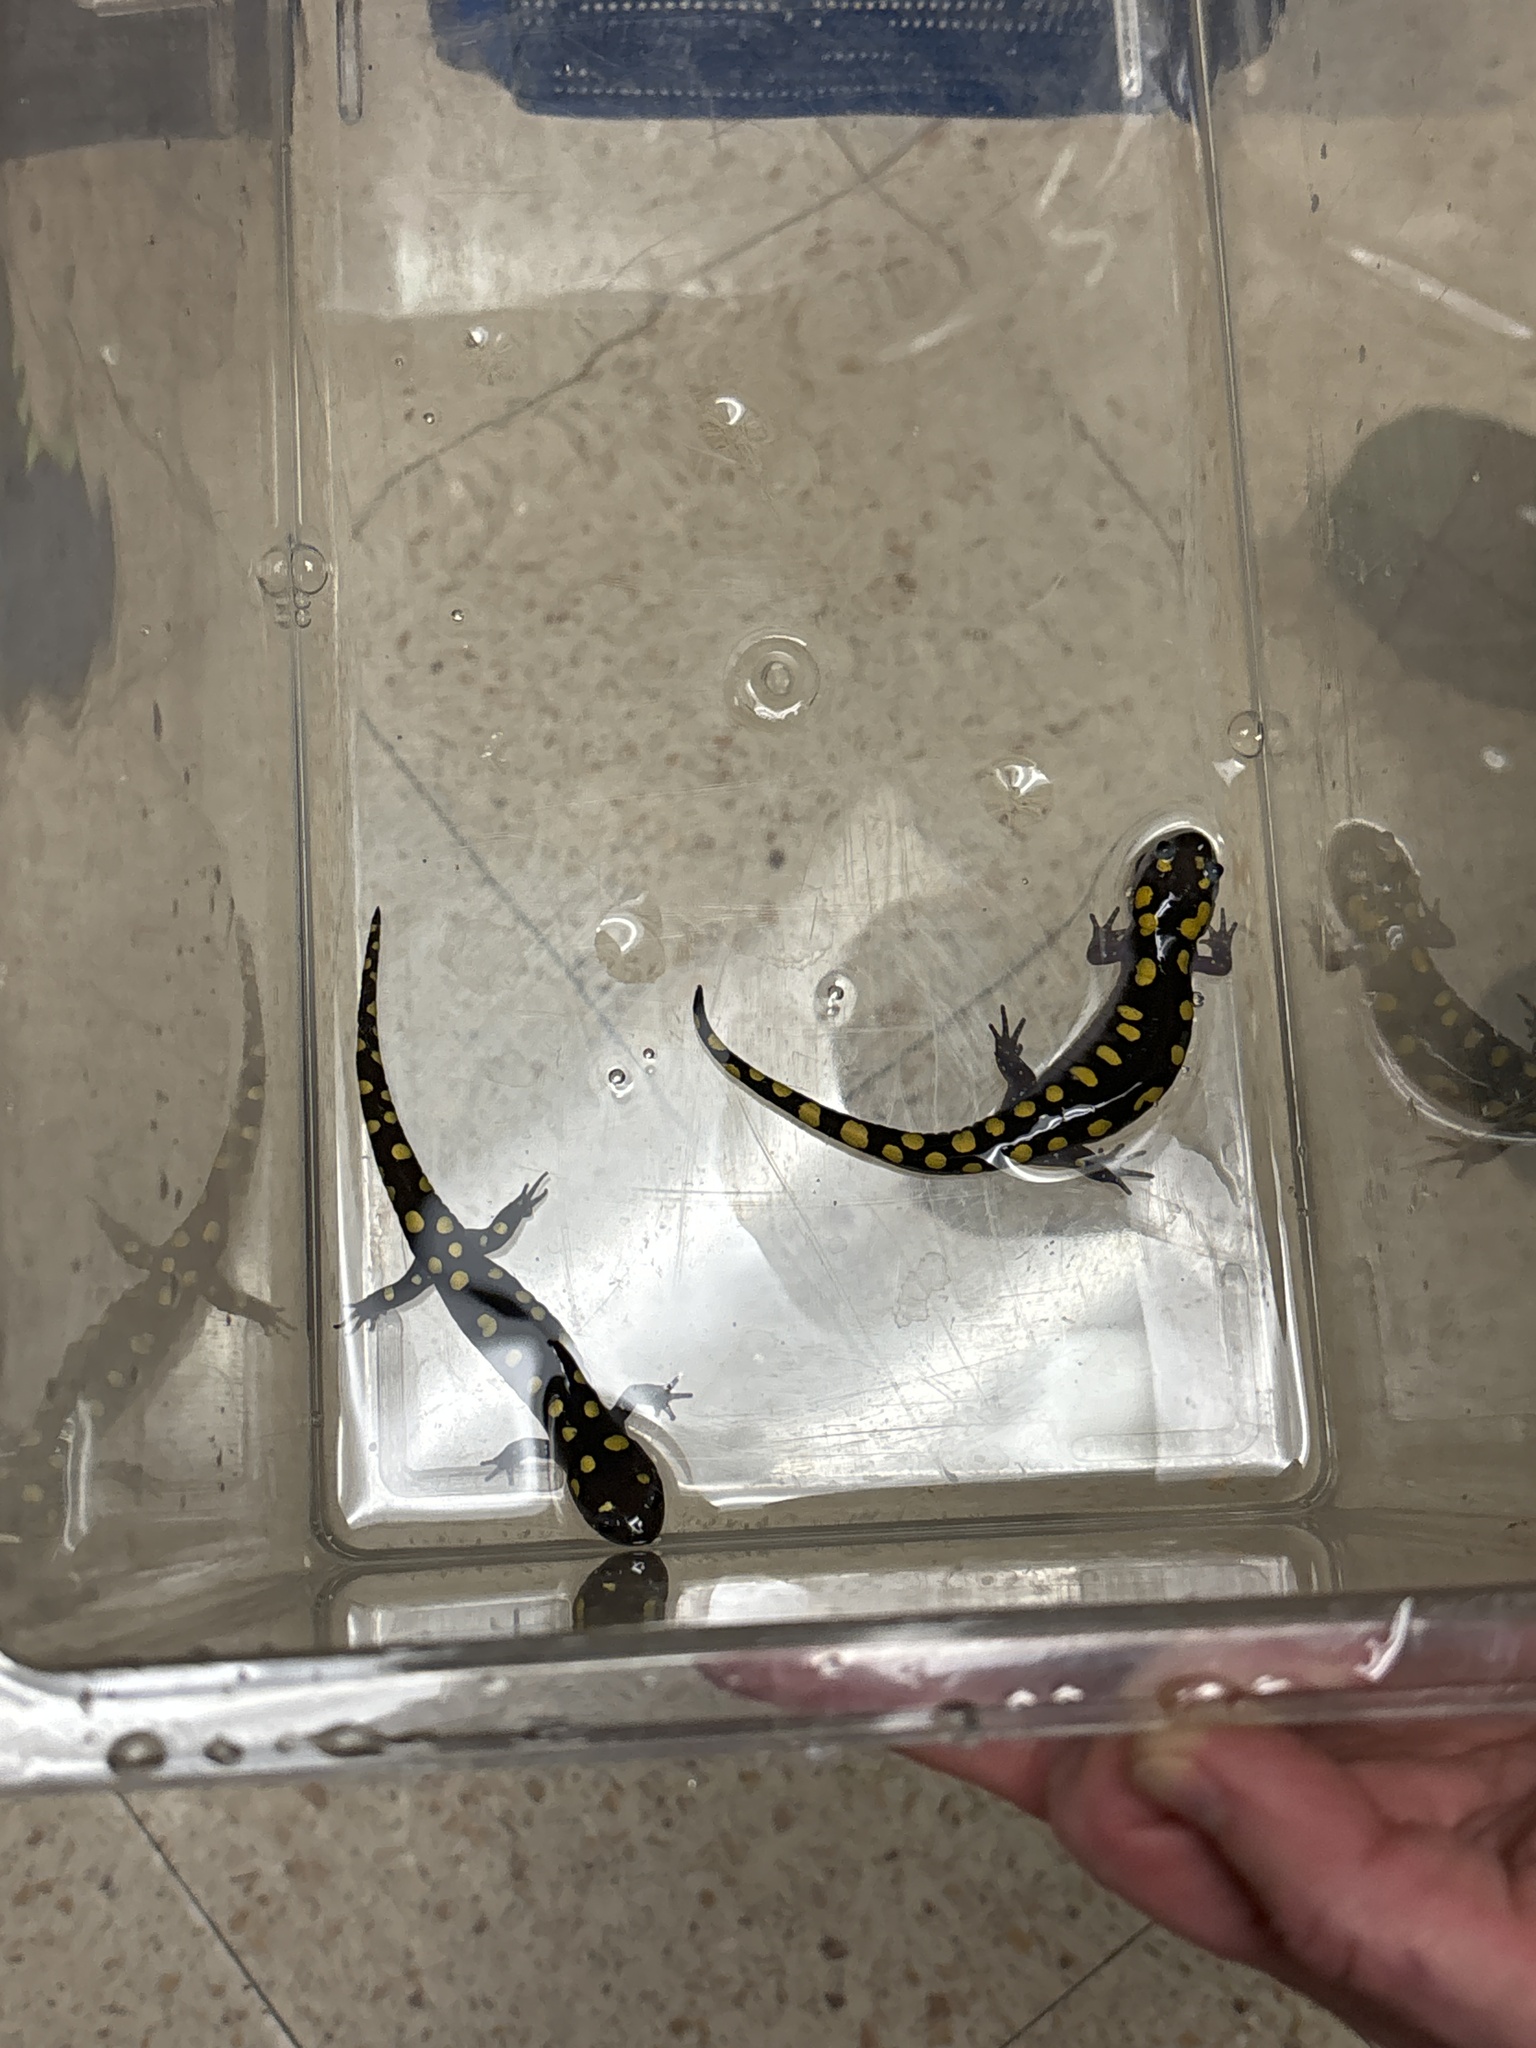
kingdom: Animalia
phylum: Chordata
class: Amphibia
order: Caudata
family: Ambystomatidae
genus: Ambystoma
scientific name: Ambystoma maculatum
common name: Spotted salamander
